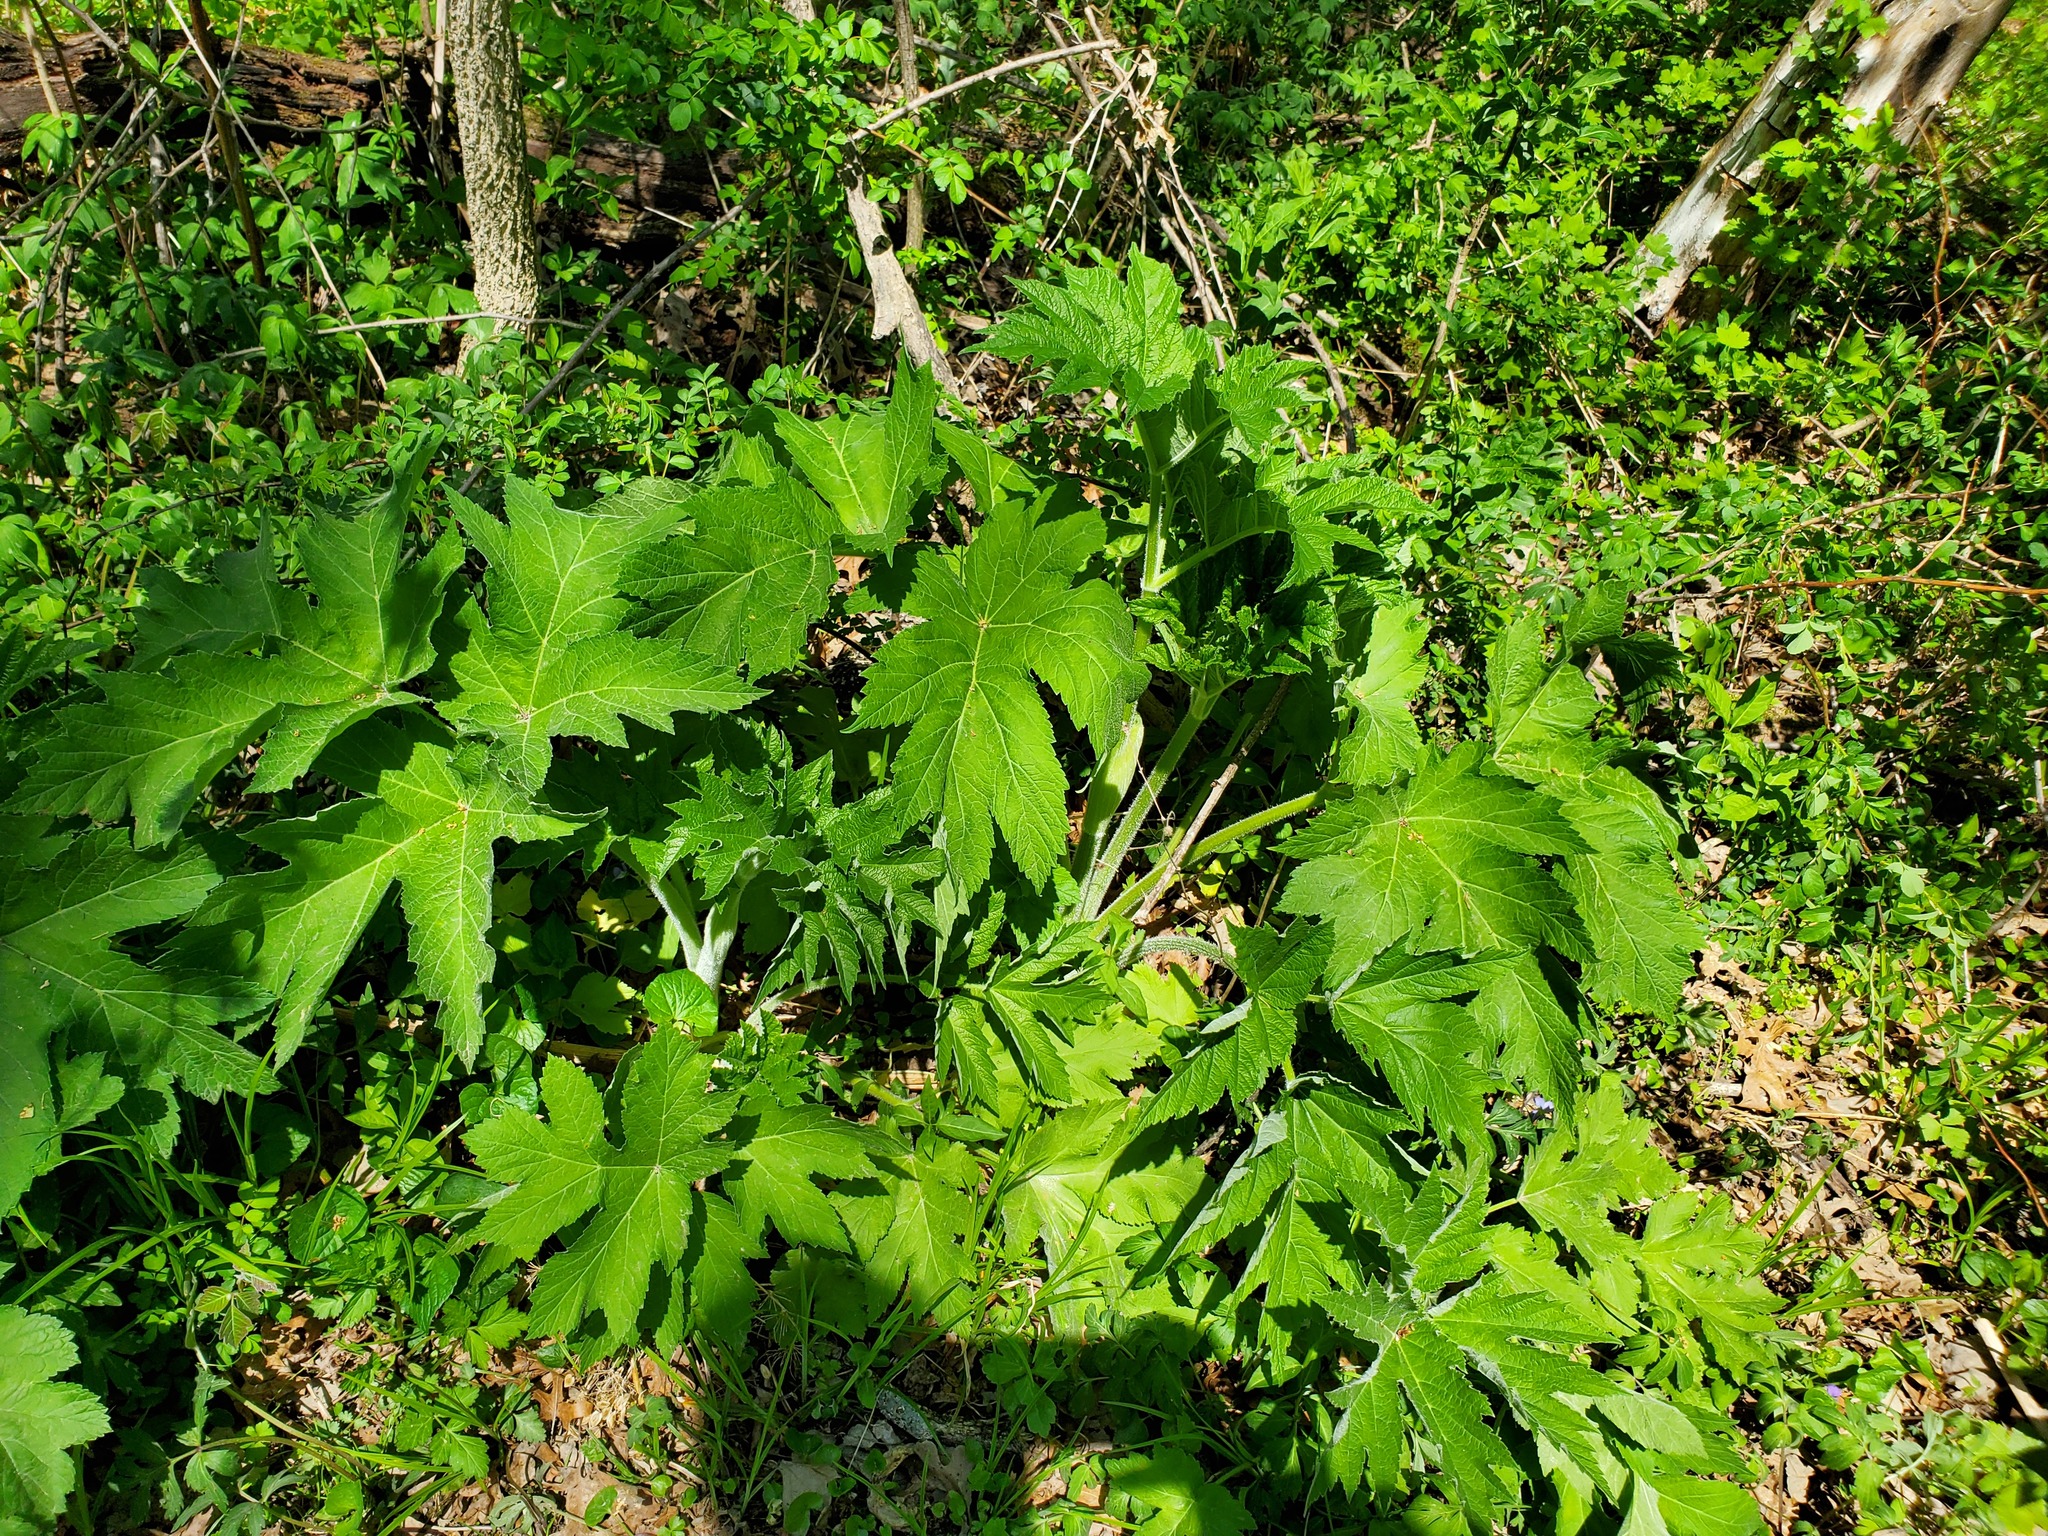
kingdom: Plantae
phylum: Tracheophyta
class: Magnoliopsida
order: Apiales
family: Apiaceae
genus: Heracleum
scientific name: Heracleum maximum
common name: American cow parsnip
